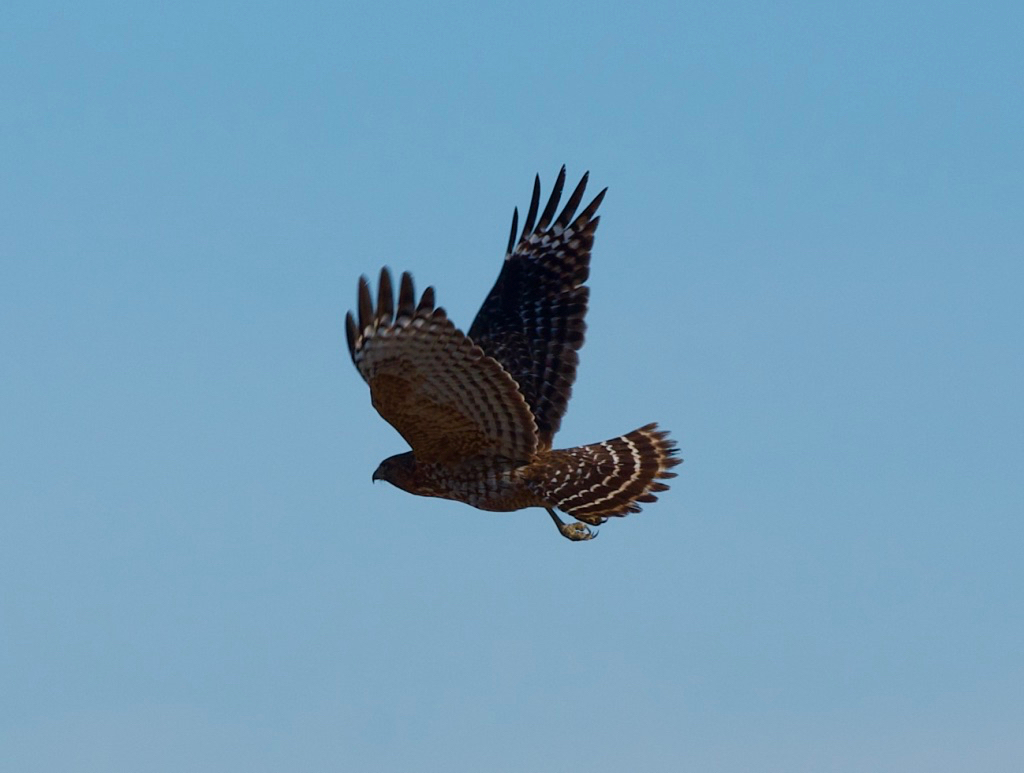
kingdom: Animalia
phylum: Chordata
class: Aves
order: Accipitriformes
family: Accipitridae
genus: Buteo
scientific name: Buteo lineatus
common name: Red-shouldered hawk
